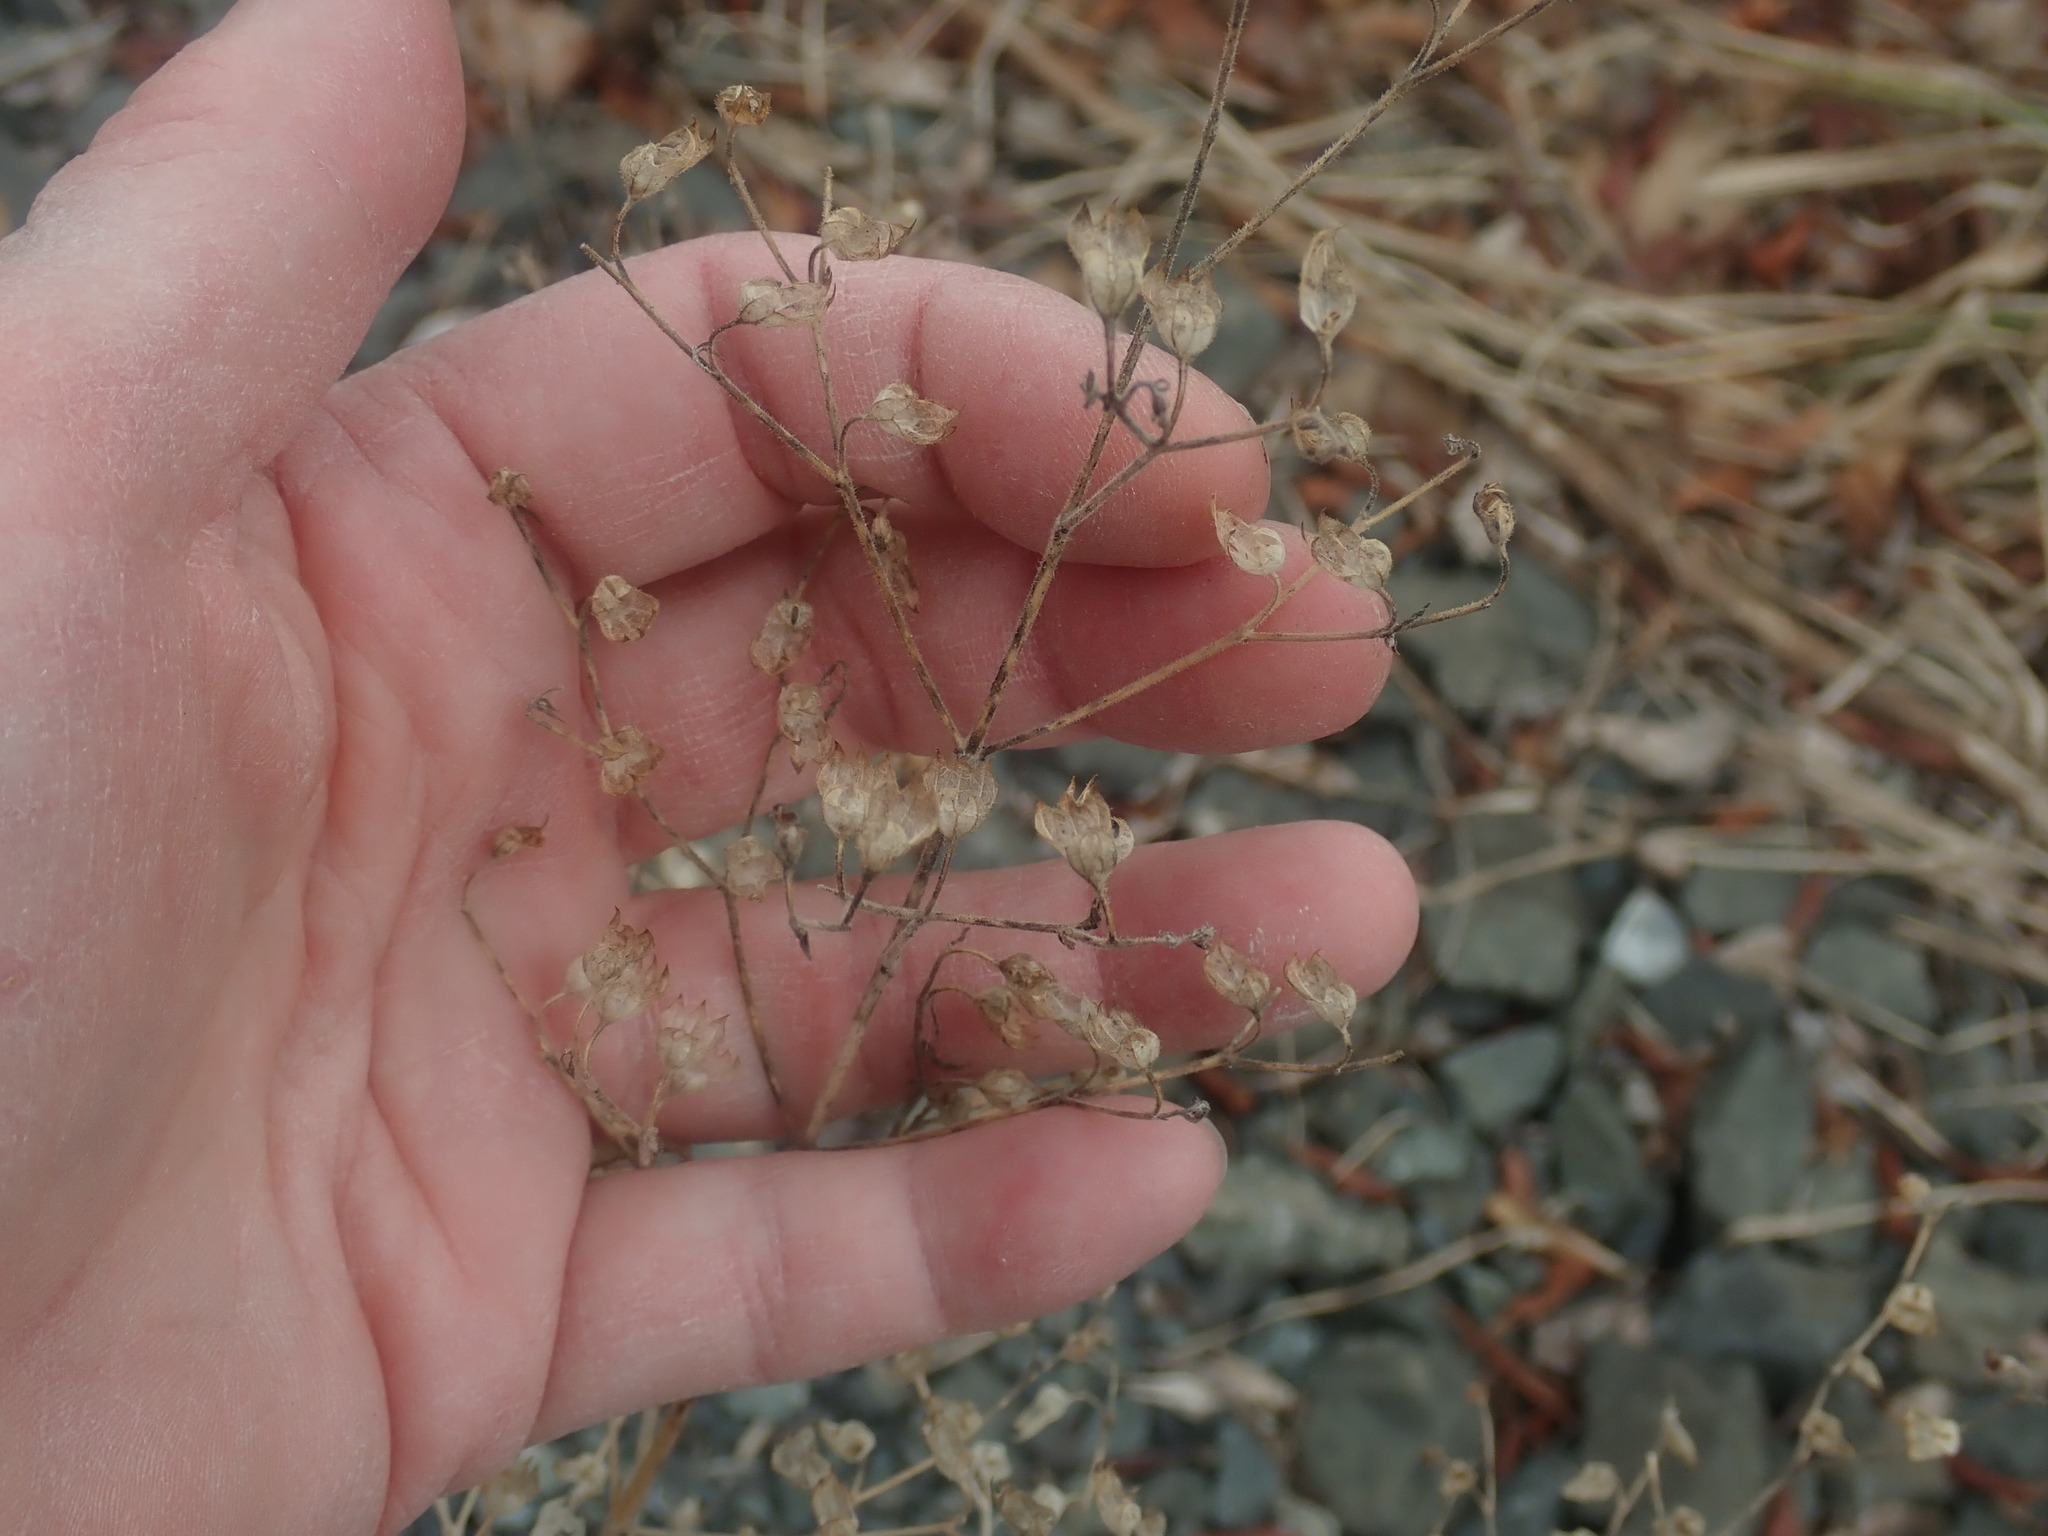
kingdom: Plantae
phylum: Tracheophyta
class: Magnoliopsida
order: Lamiales
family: Lamiaceae
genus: Trichostema
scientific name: Trichostema dichotomum
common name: Bastard pennyroyal
